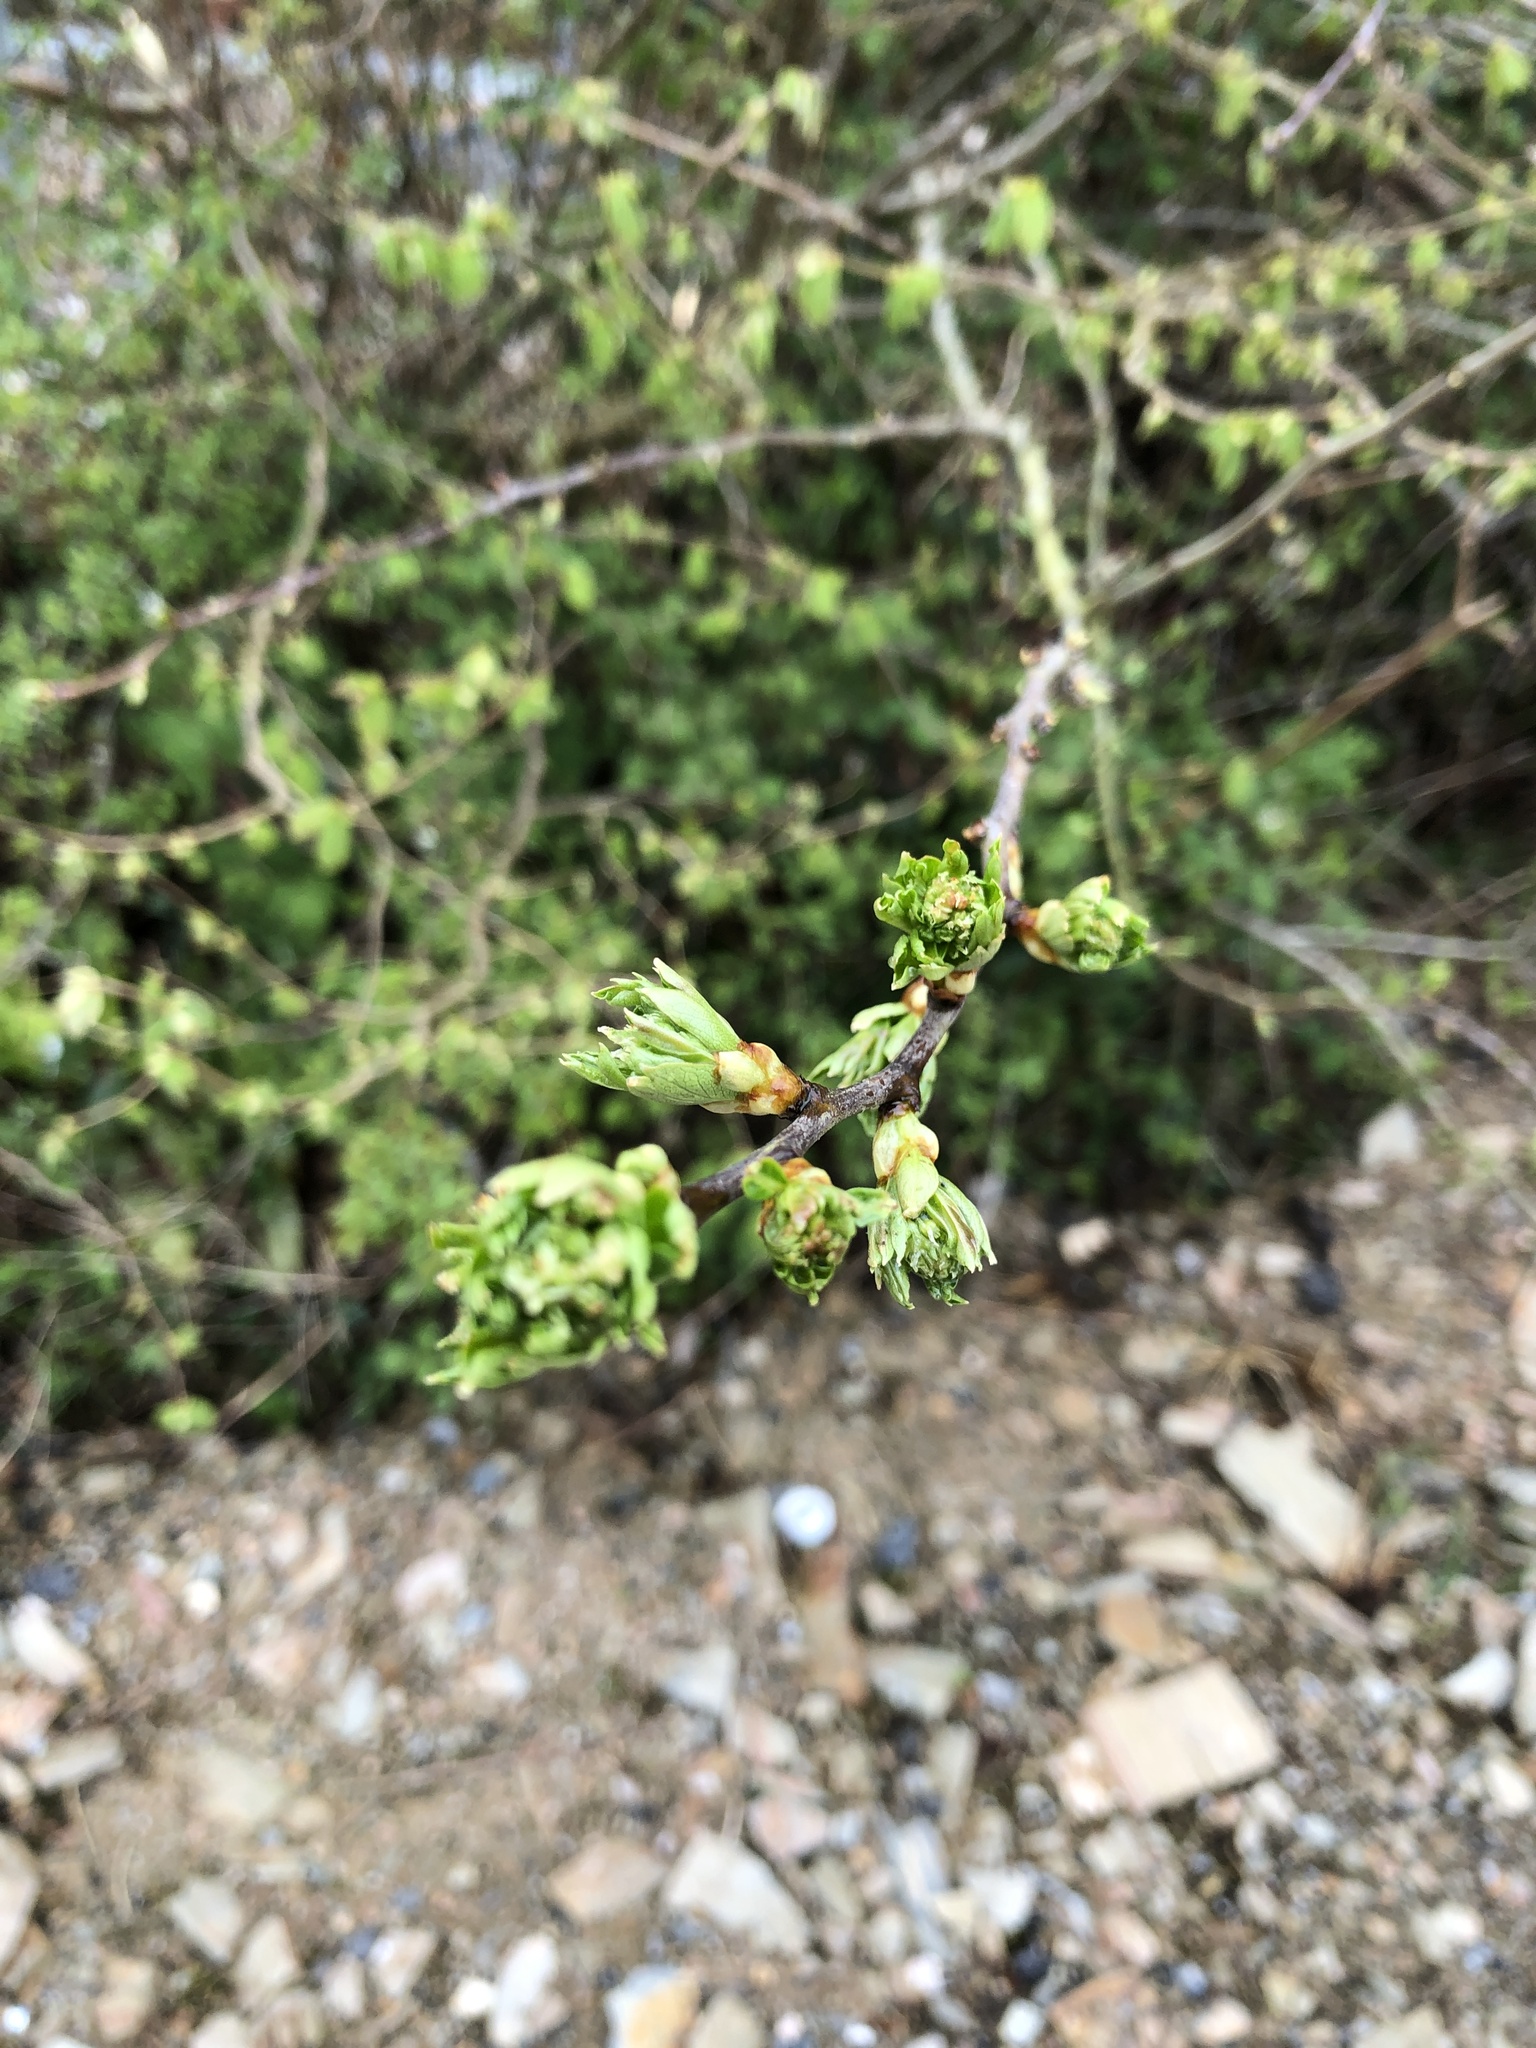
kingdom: Plantae
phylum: Tracheophyta
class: Magnoliopsida
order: Rosales
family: Rosaceae
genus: Crataegus
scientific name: Crataegus monogyna
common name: Hawthorn
